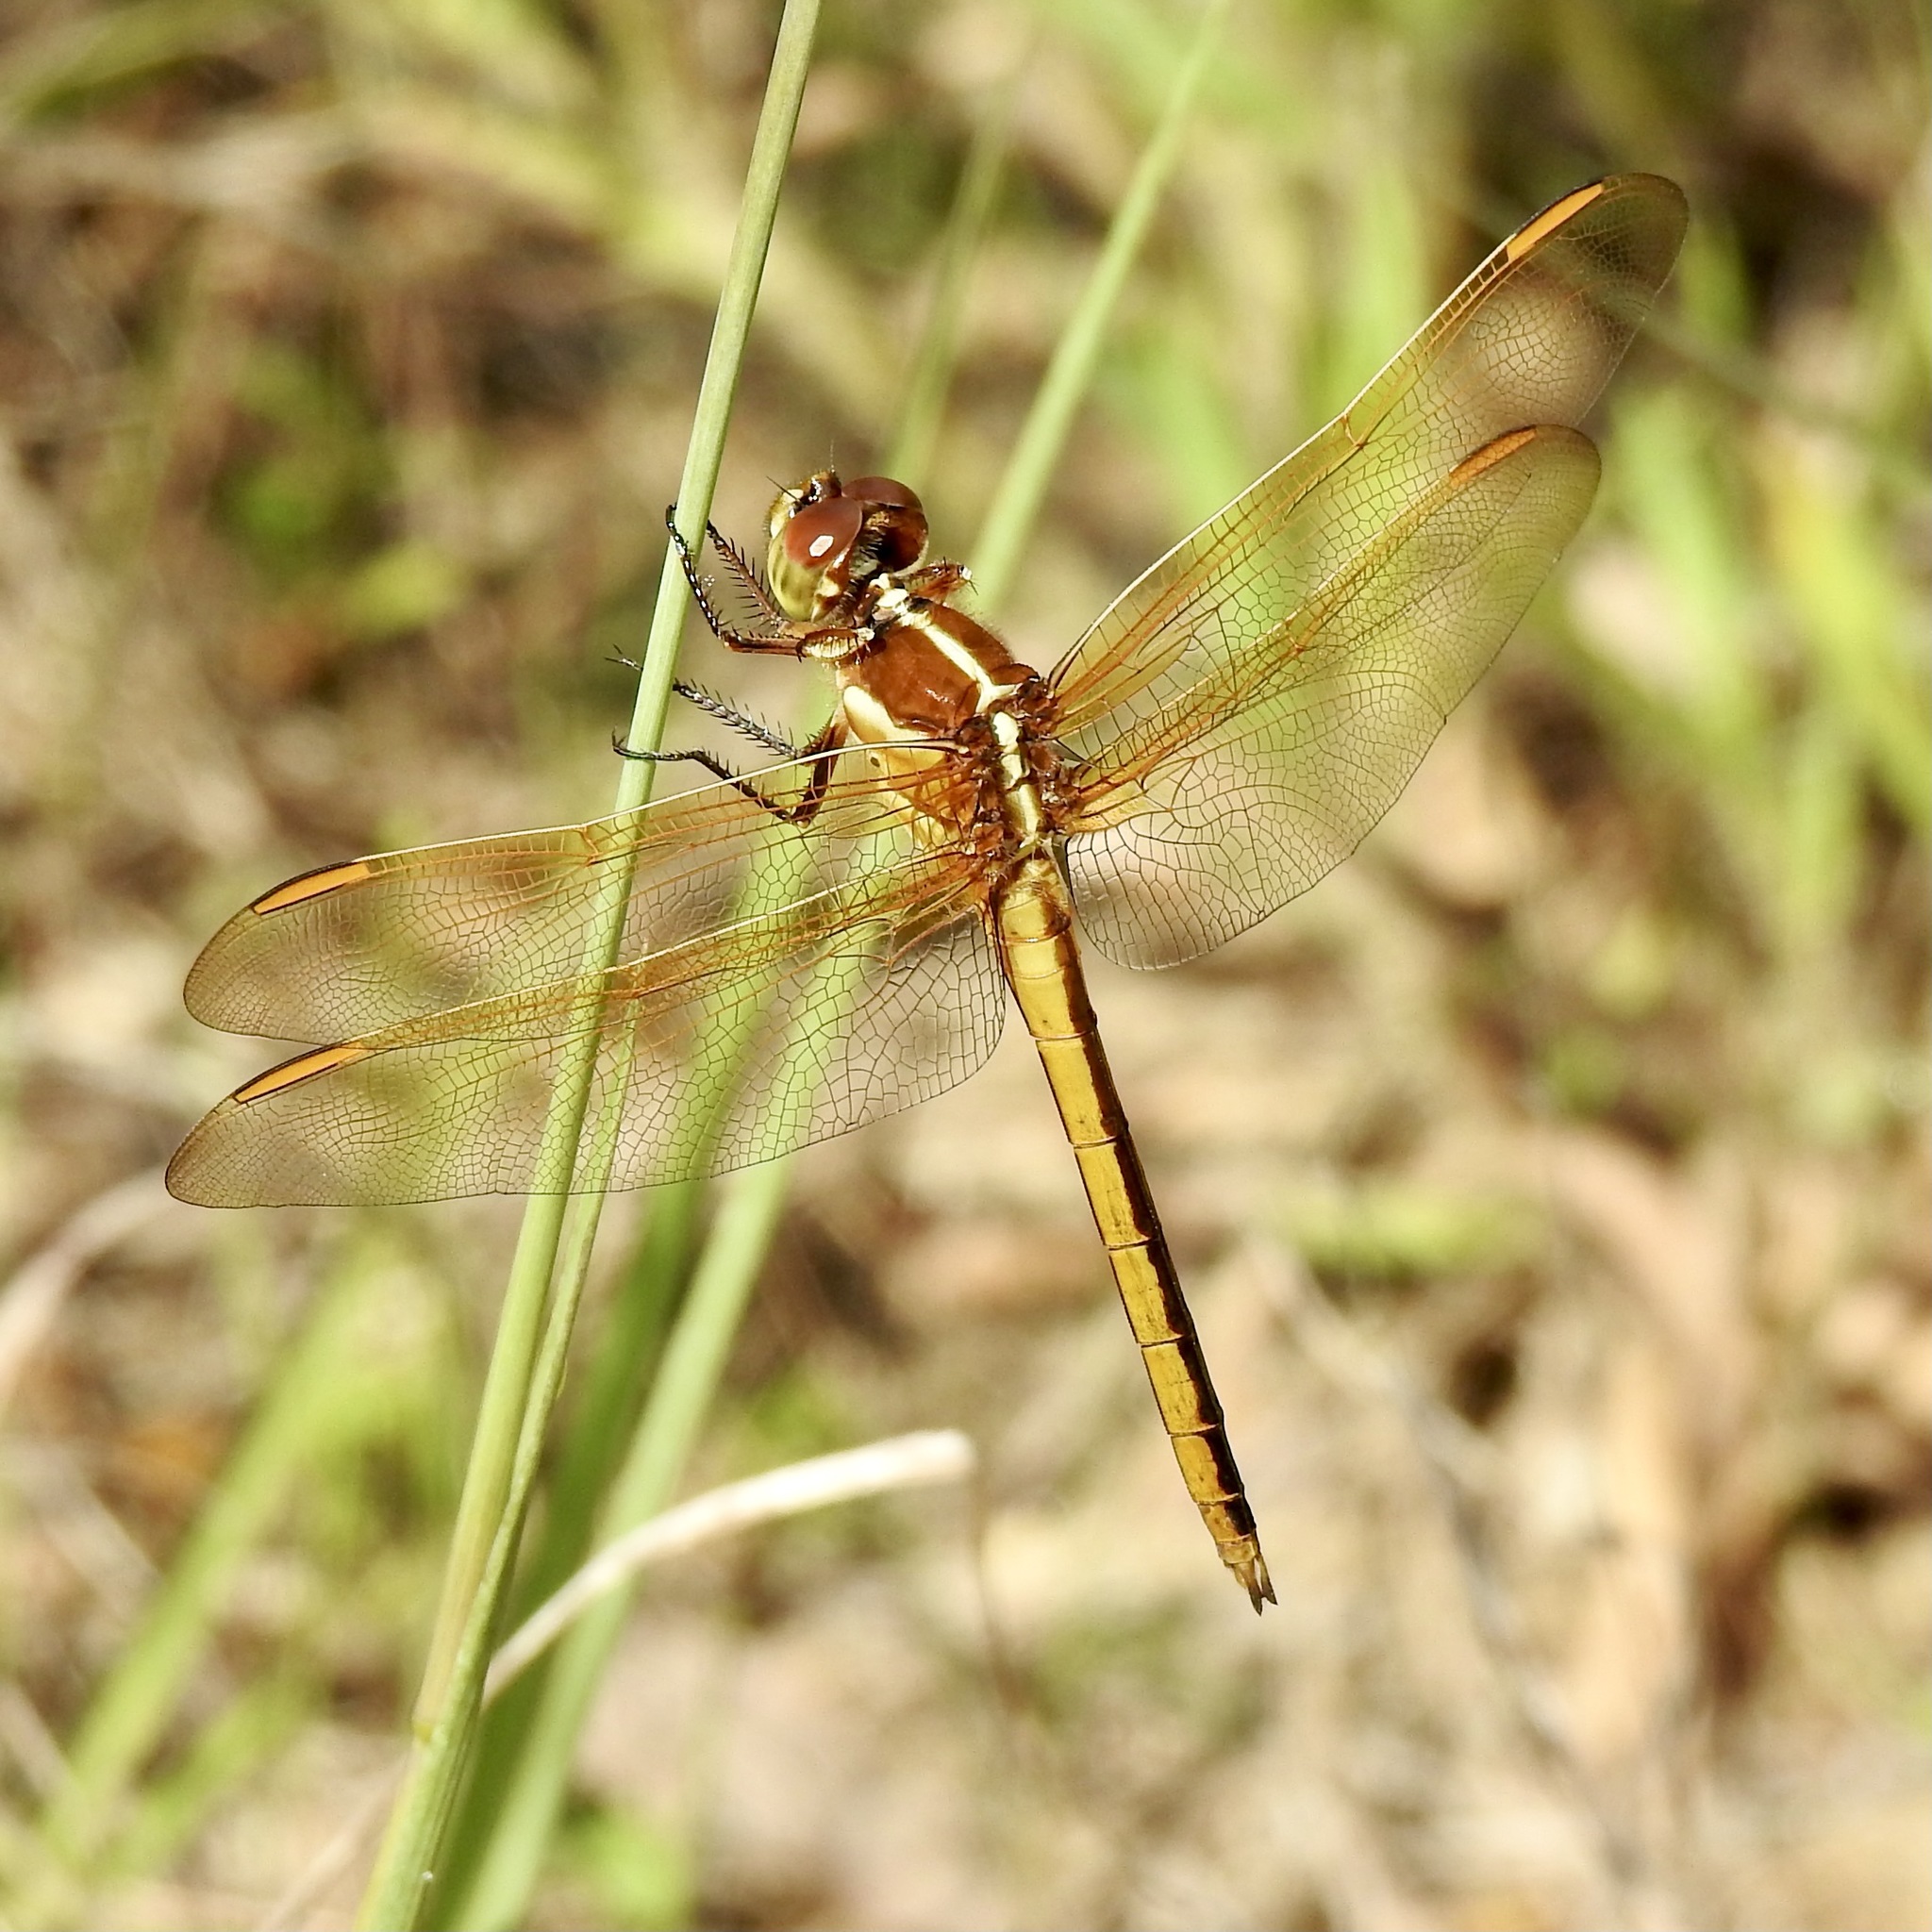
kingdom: Animalia
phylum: Arthropoda
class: Insecta
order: Odonata
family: Libellulidae
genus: Libellula
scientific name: Libellula auripennis
